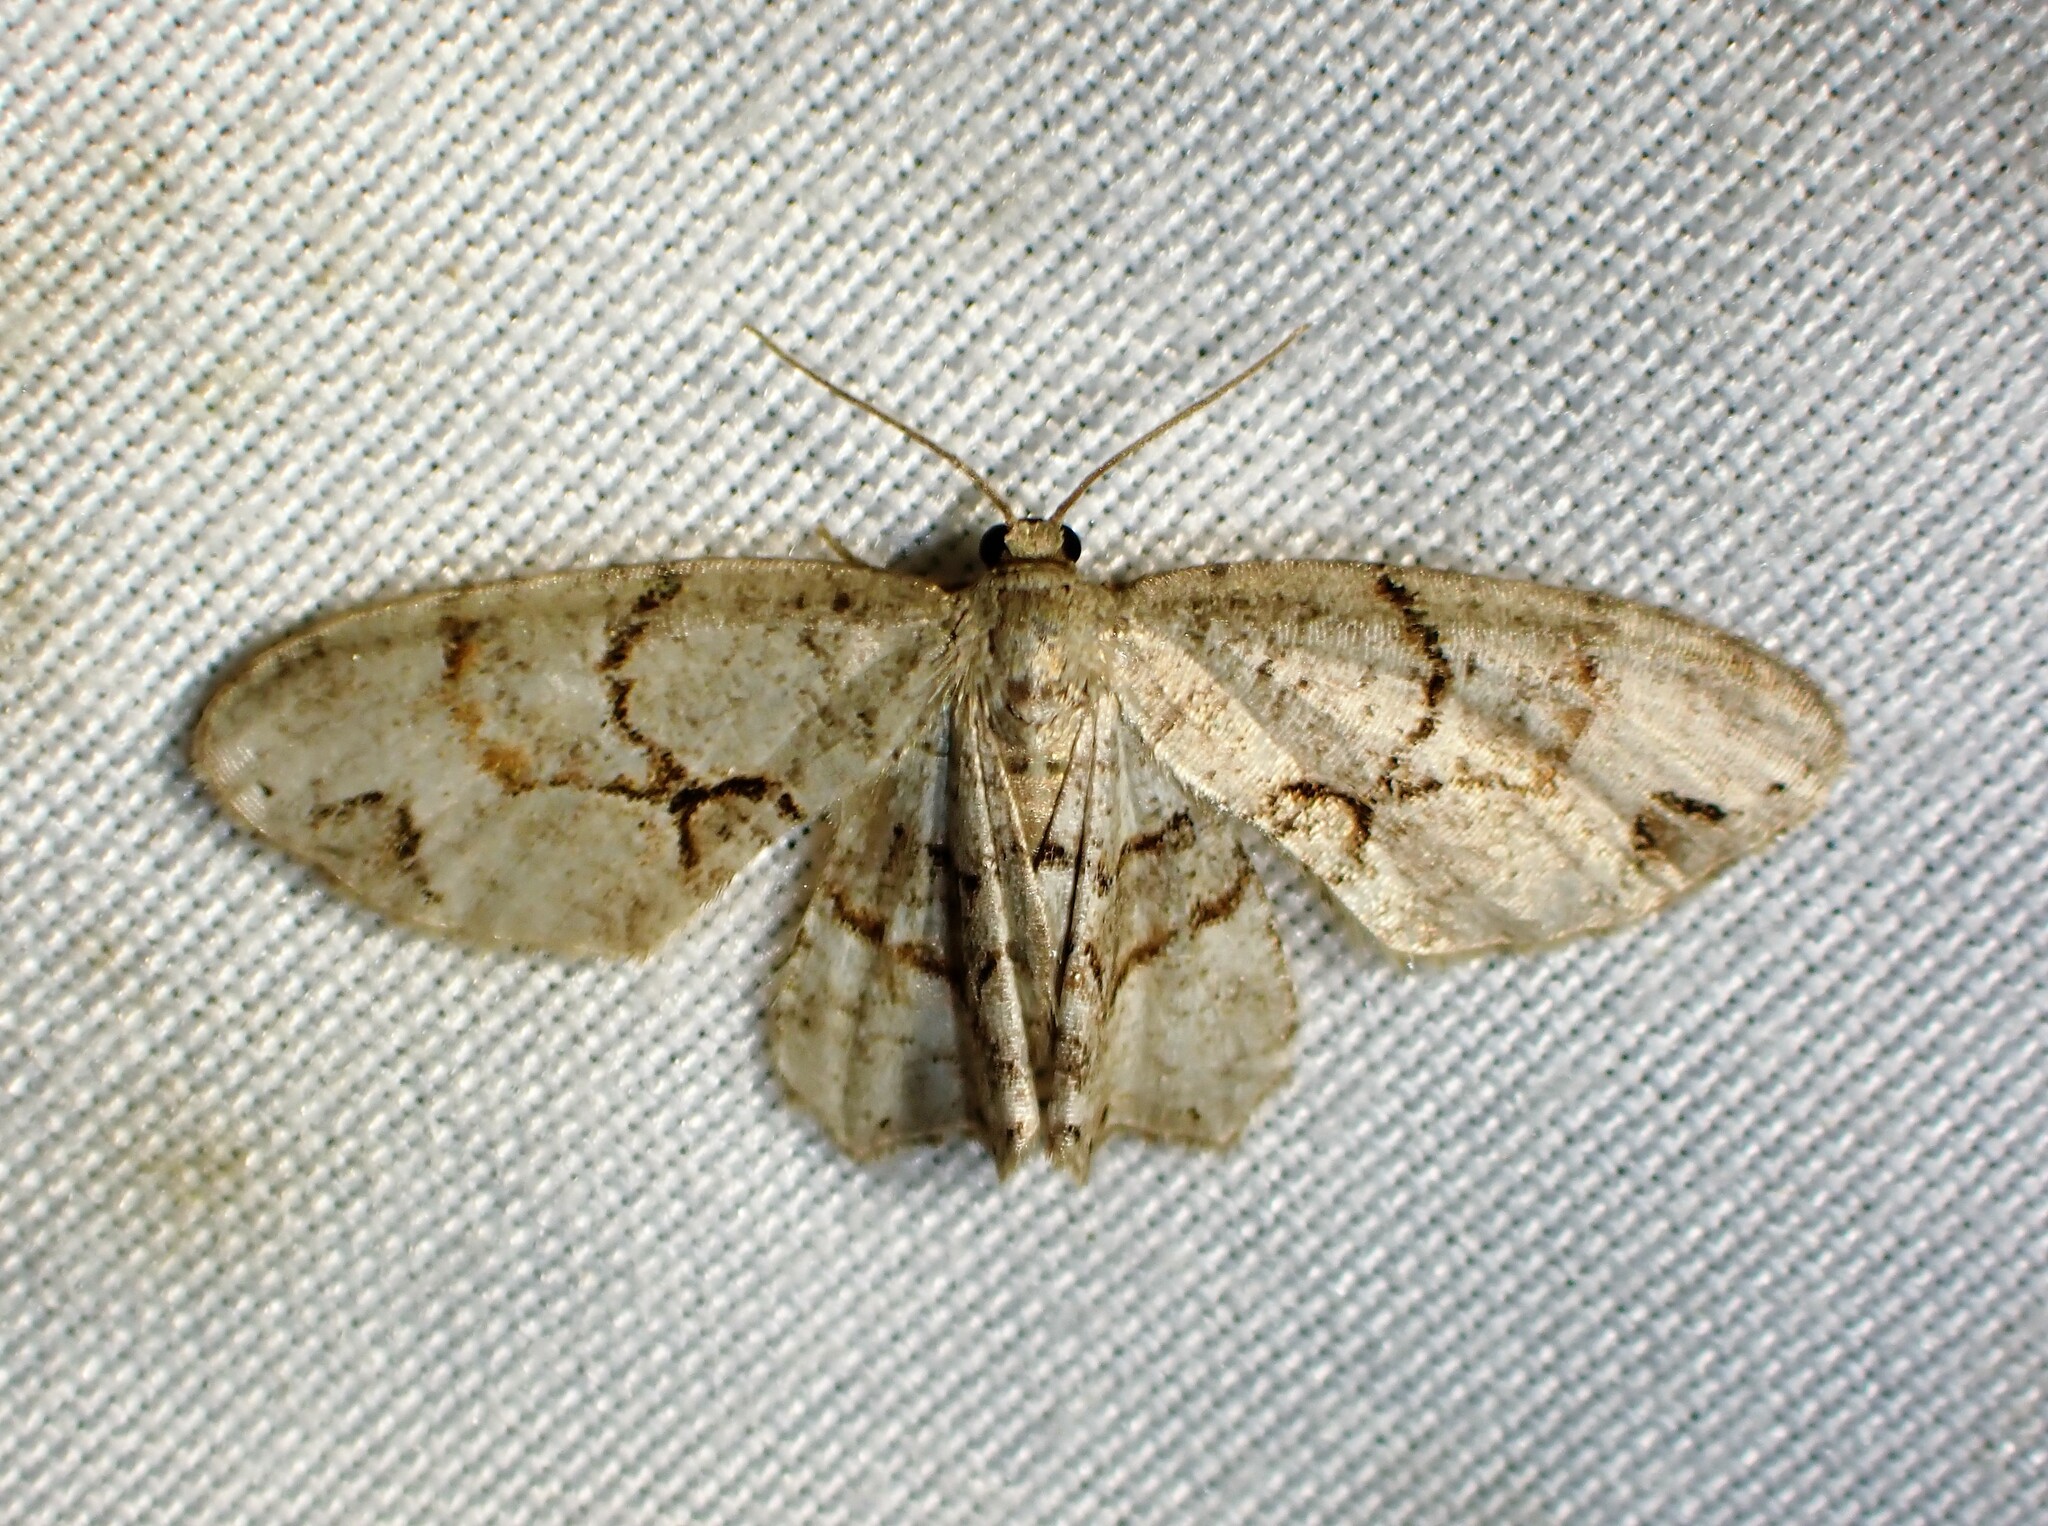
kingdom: Animalia
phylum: Arthropoda
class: Insecta
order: Lepidoptera
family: Uraniidae
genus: Epiplema
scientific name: Epiplema Callizzia amorata
